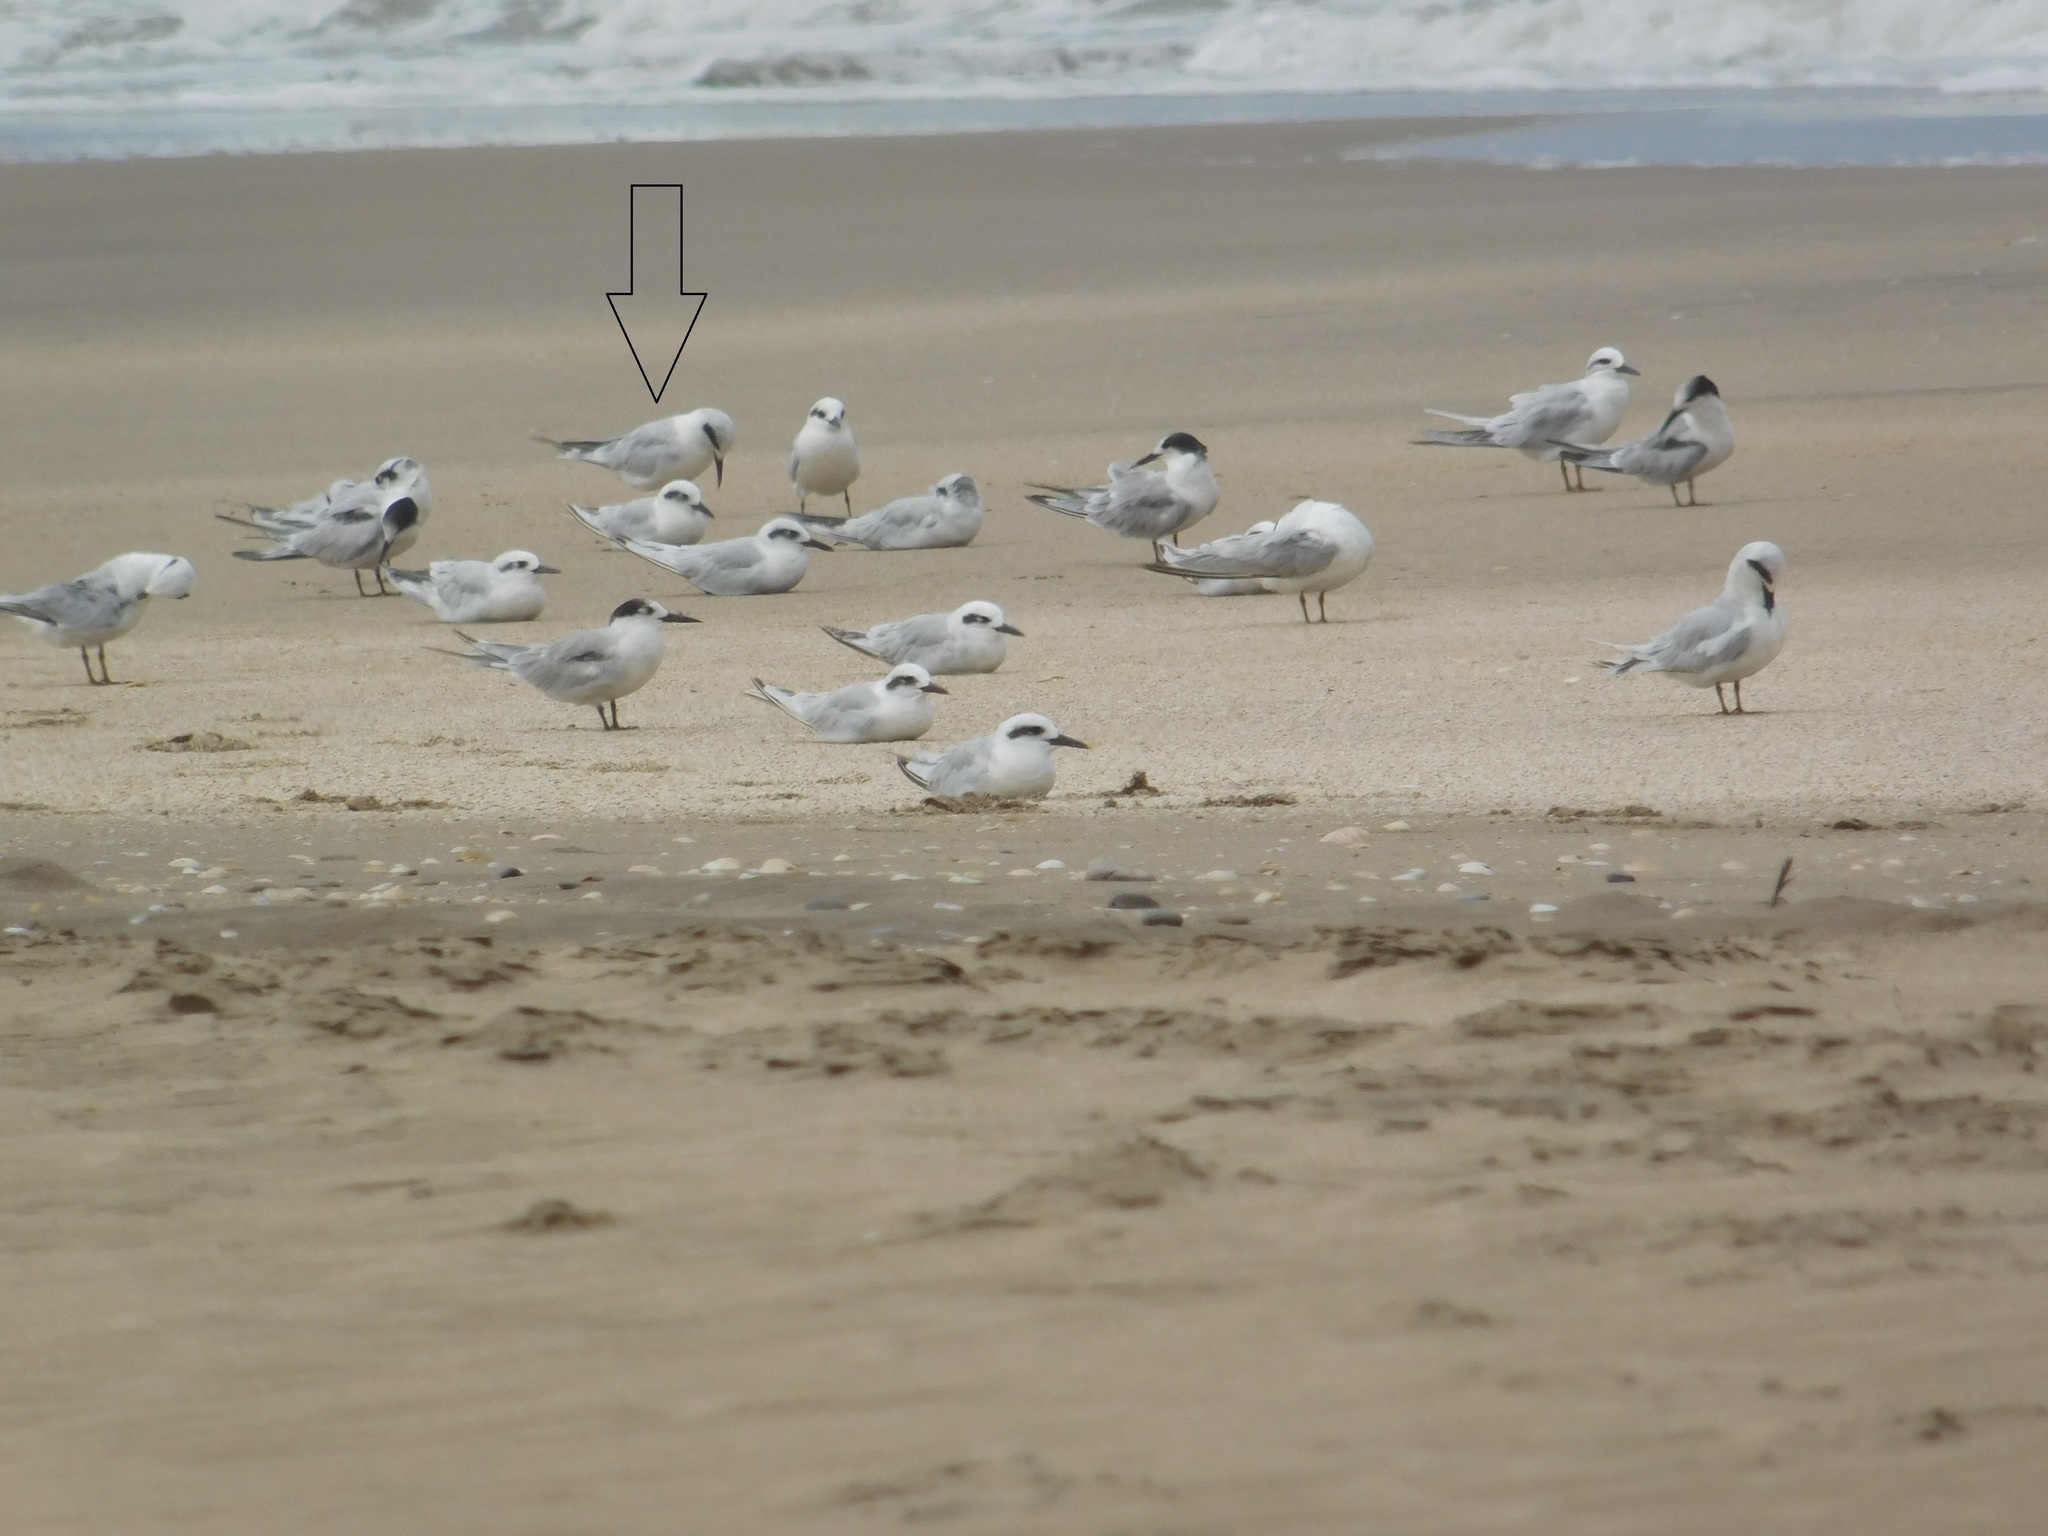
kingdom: Animalia
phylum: Chordata
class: Aves
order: Charadriiformes
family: Laridae
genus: Sterna
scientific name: Sterna trudeaui
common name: Snowy-crowned tern
